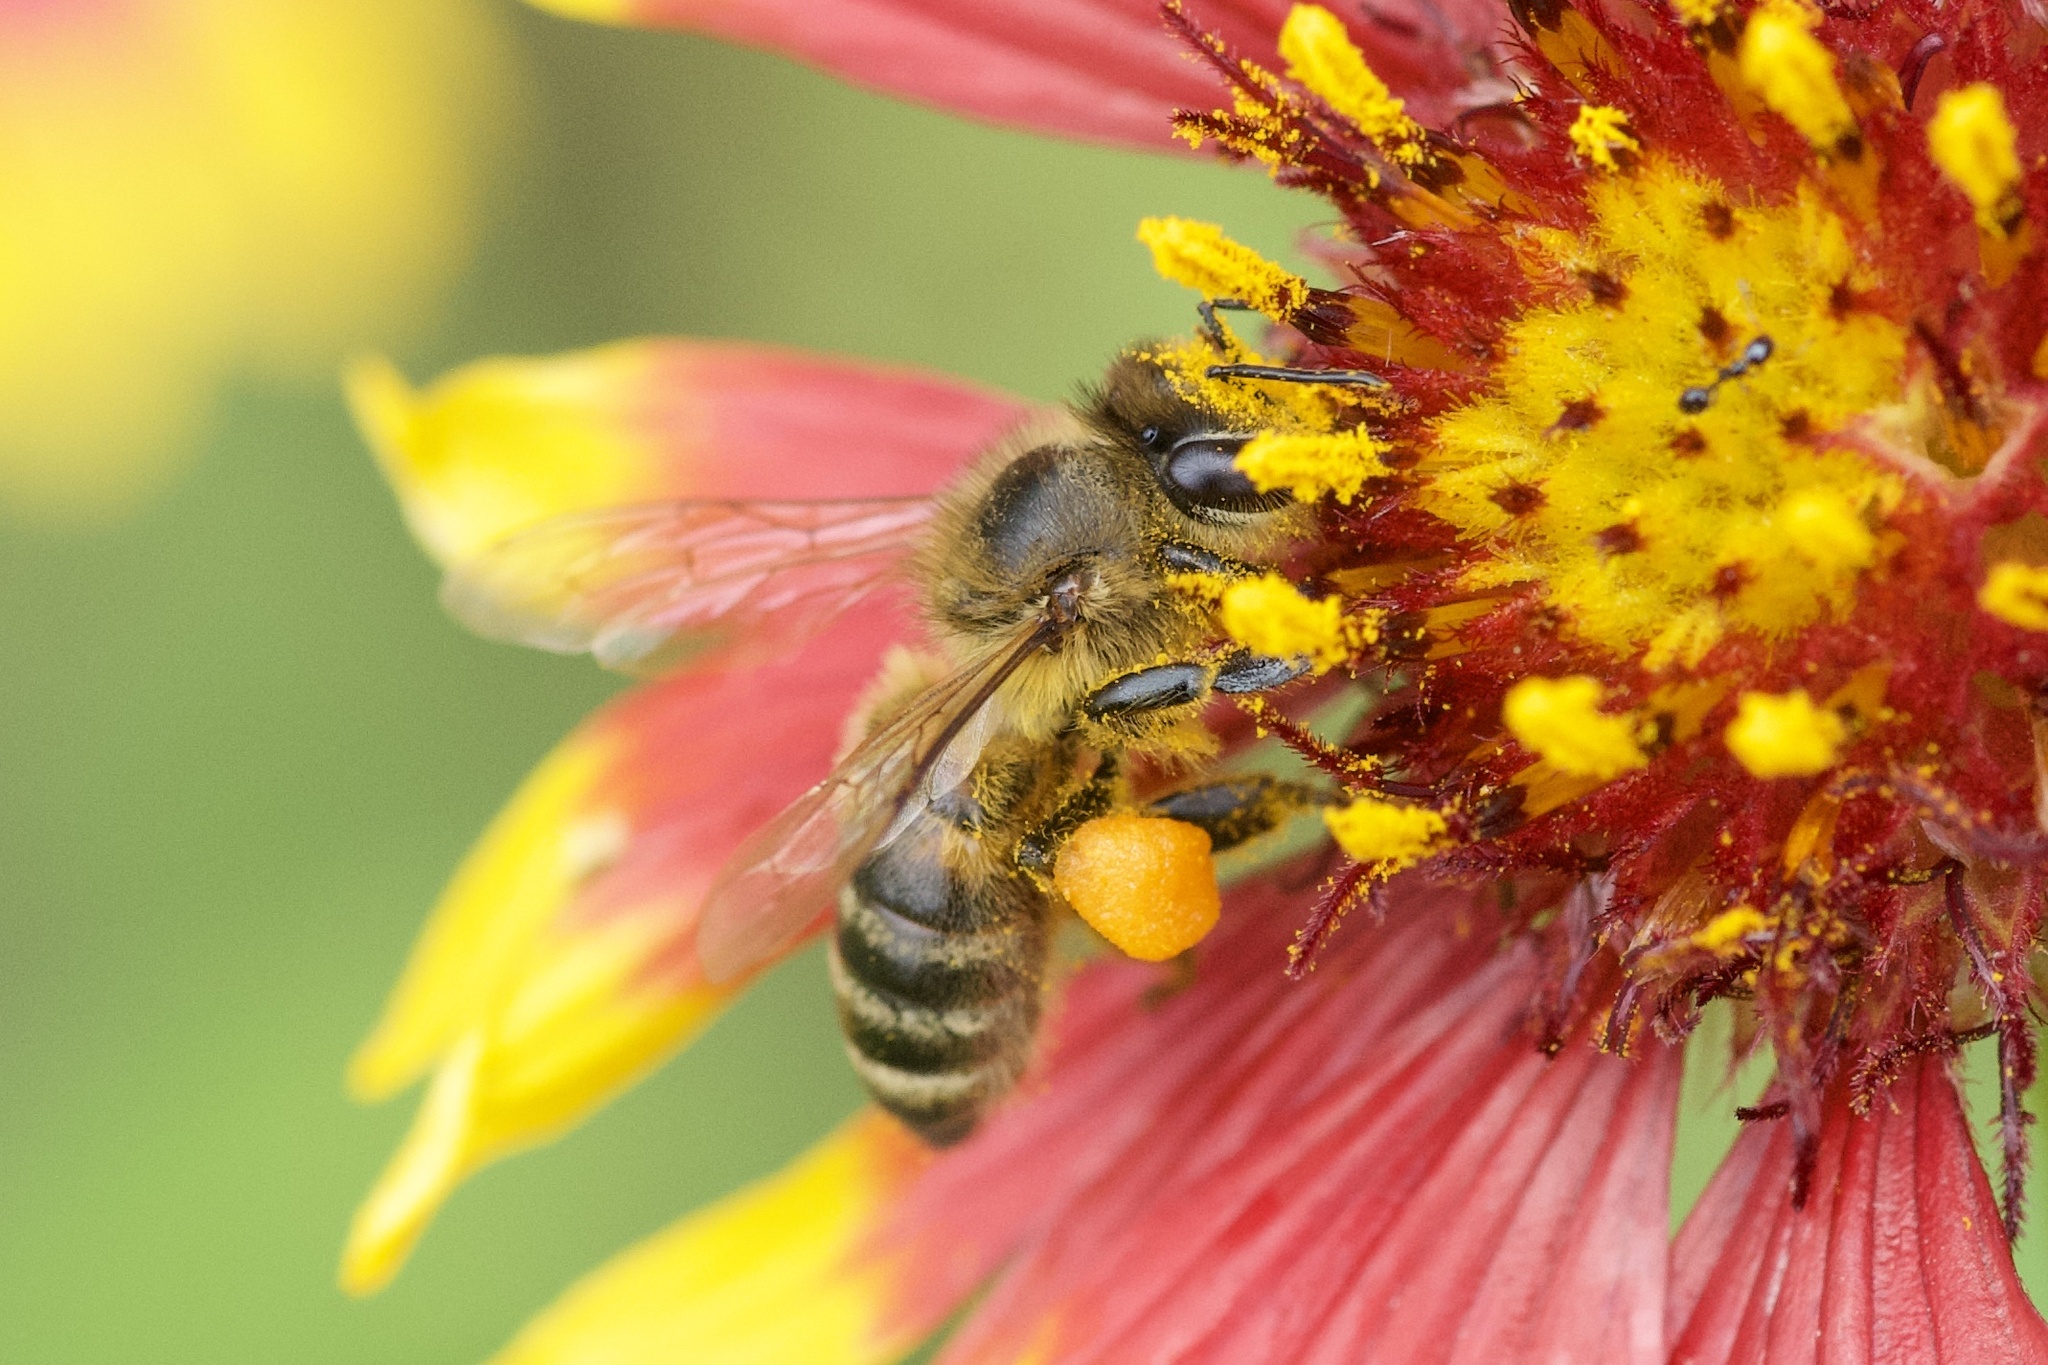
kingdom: Animalia
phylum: Arthropoda
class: Insecta
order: Hymenoptera
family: Apidae
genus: Apis
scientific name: Apis mellifera
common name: Honey bee
